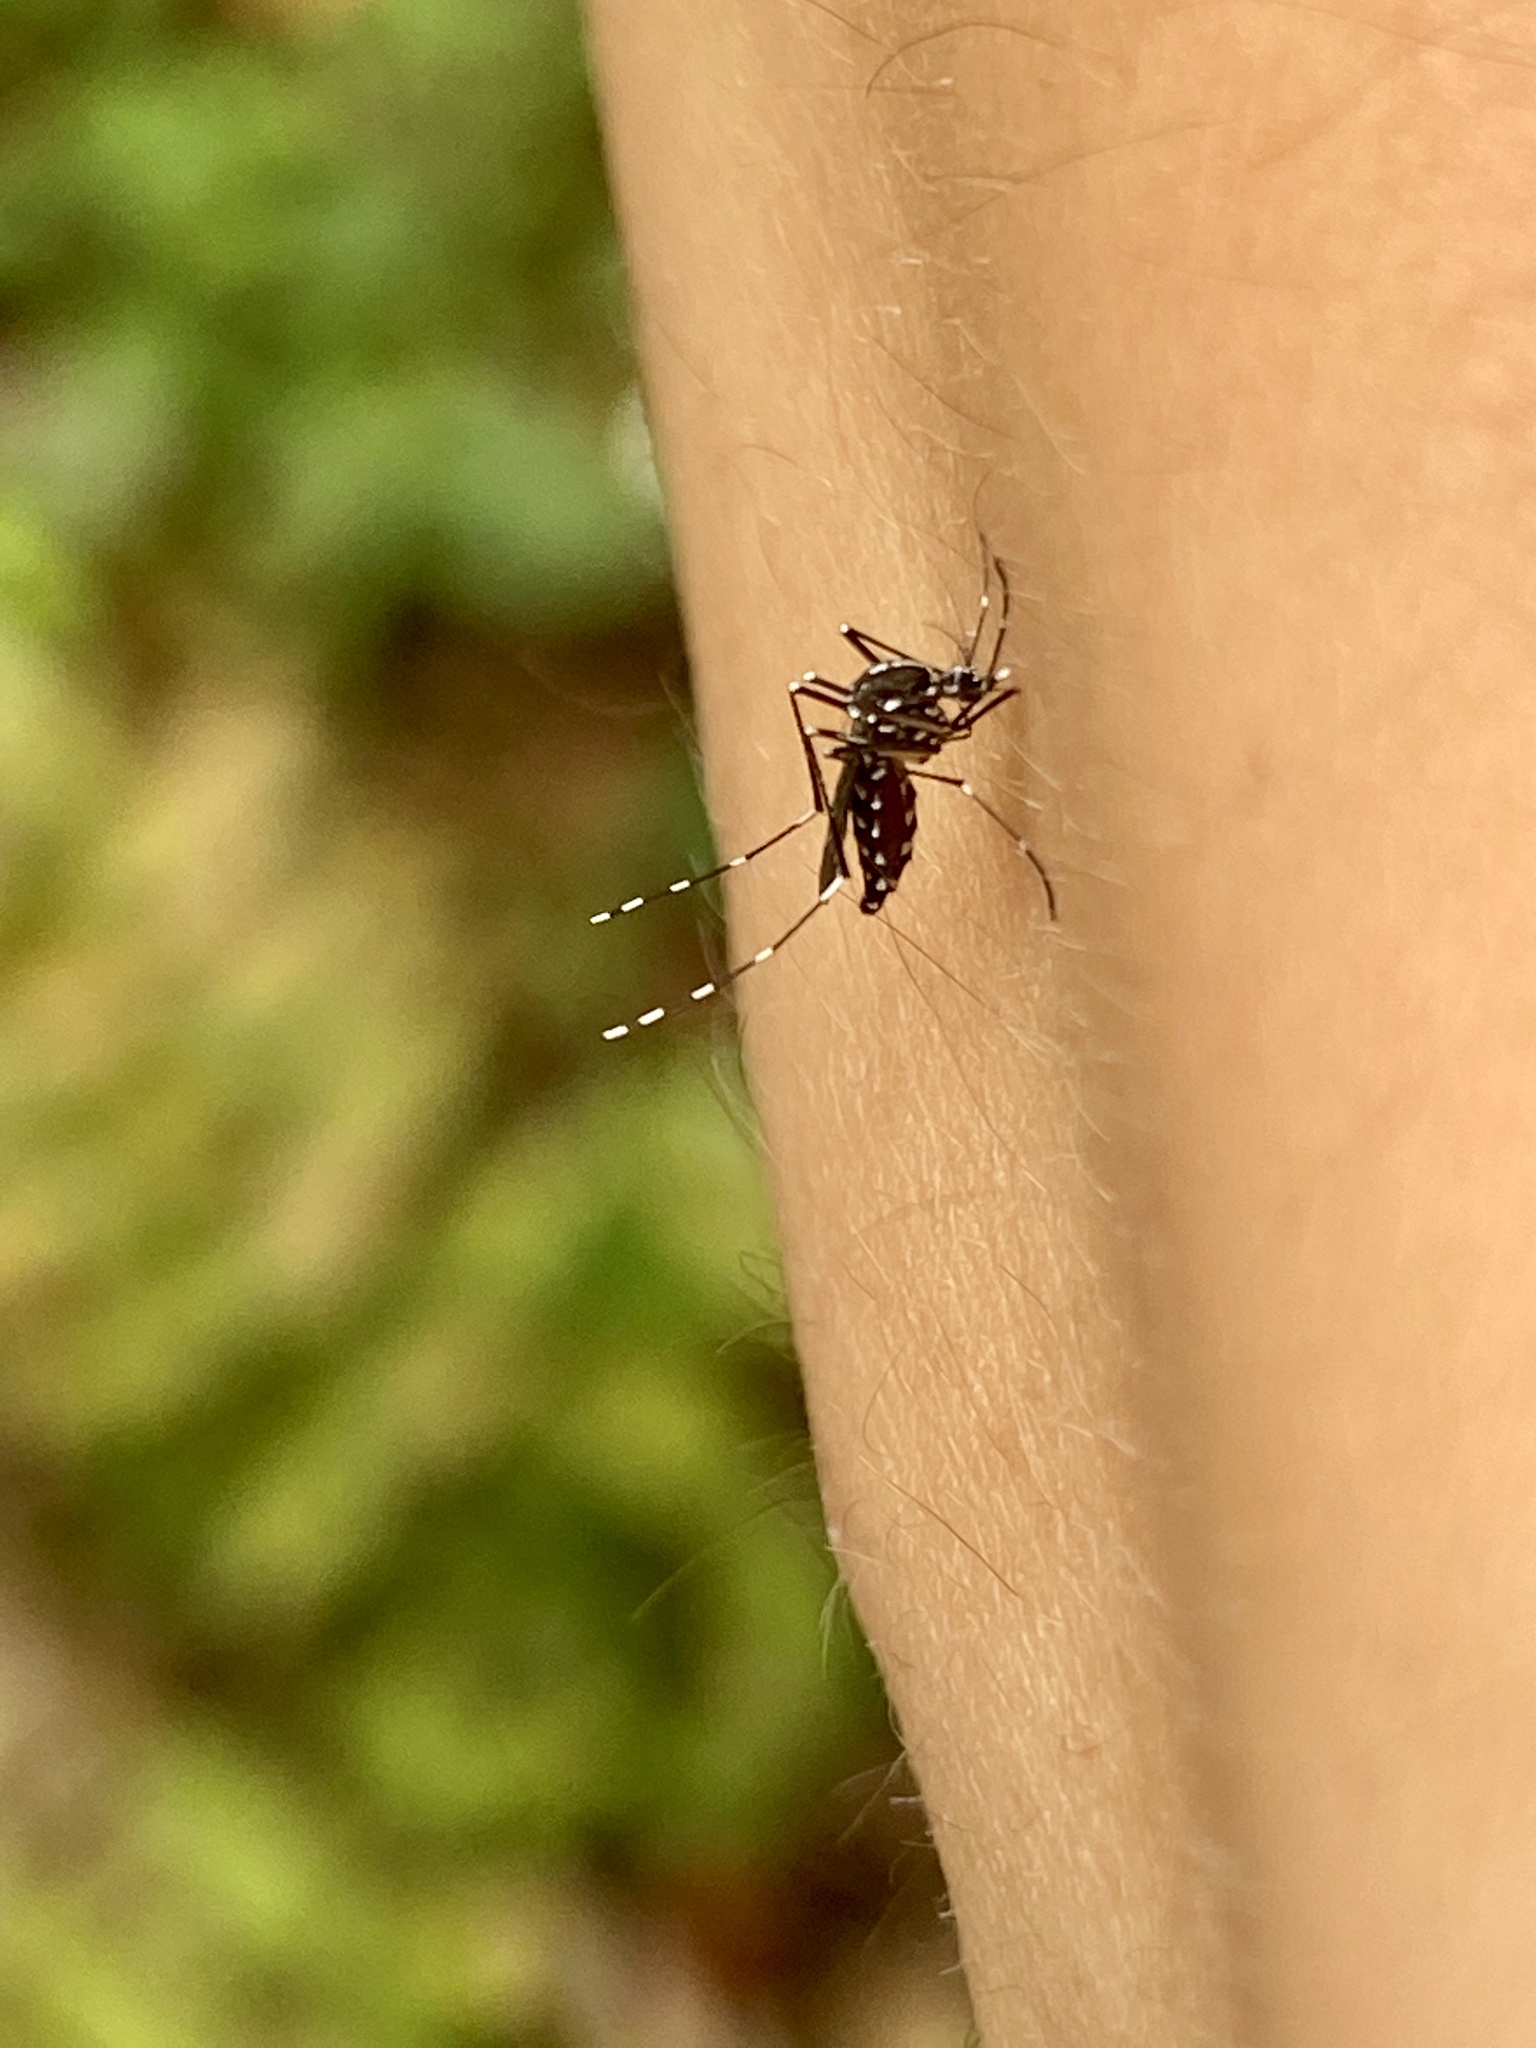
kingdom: Animalia
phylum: Arthropoda
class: Insecta
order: Diptera
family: Culicidae
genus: Aedes
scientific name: Aedes albopictus
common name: Tiger mosquito
